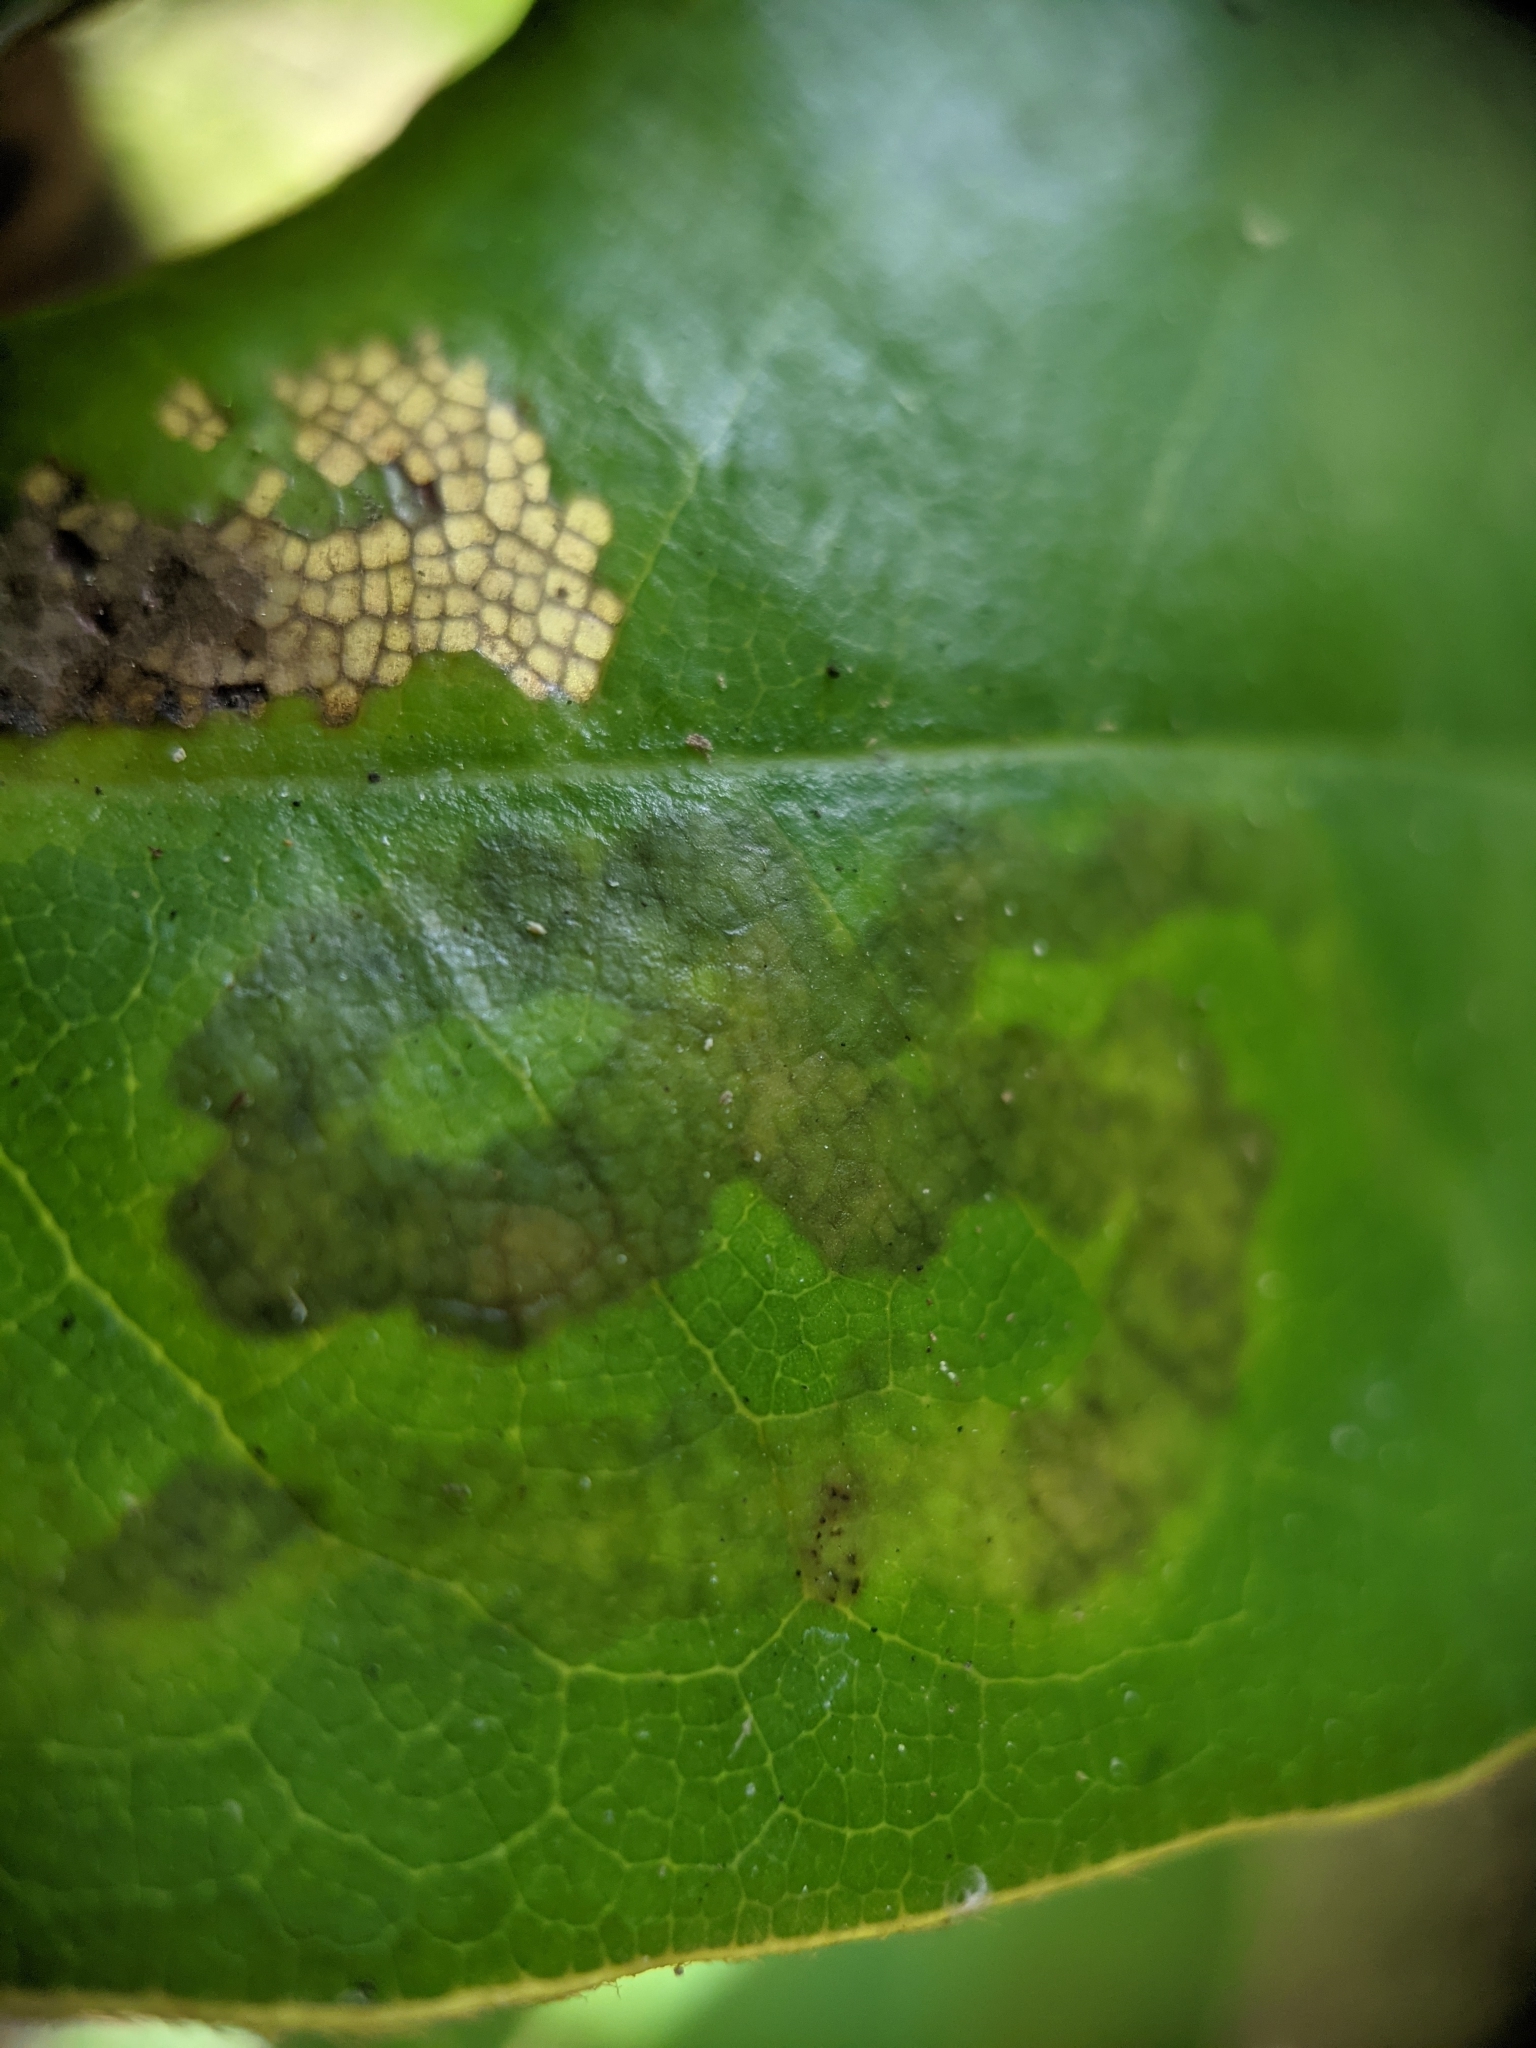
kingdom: Animalia
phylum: Arthropoda
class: Insecta
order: Lepidoptera
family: Gracillariidae
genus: Phyllocnistis
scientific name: Phyllocnistis liriodendronella
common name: Tulip tree leaf miner
